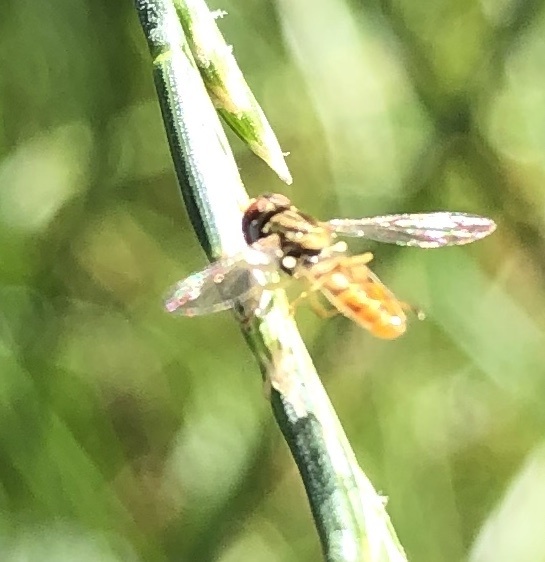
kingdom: Animalia
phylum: Arthropoda
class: Insecta
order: Diptera
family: Syrphidae
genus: Toxomerus
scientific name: Toxomerus marginatus
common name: Syrphid fly
